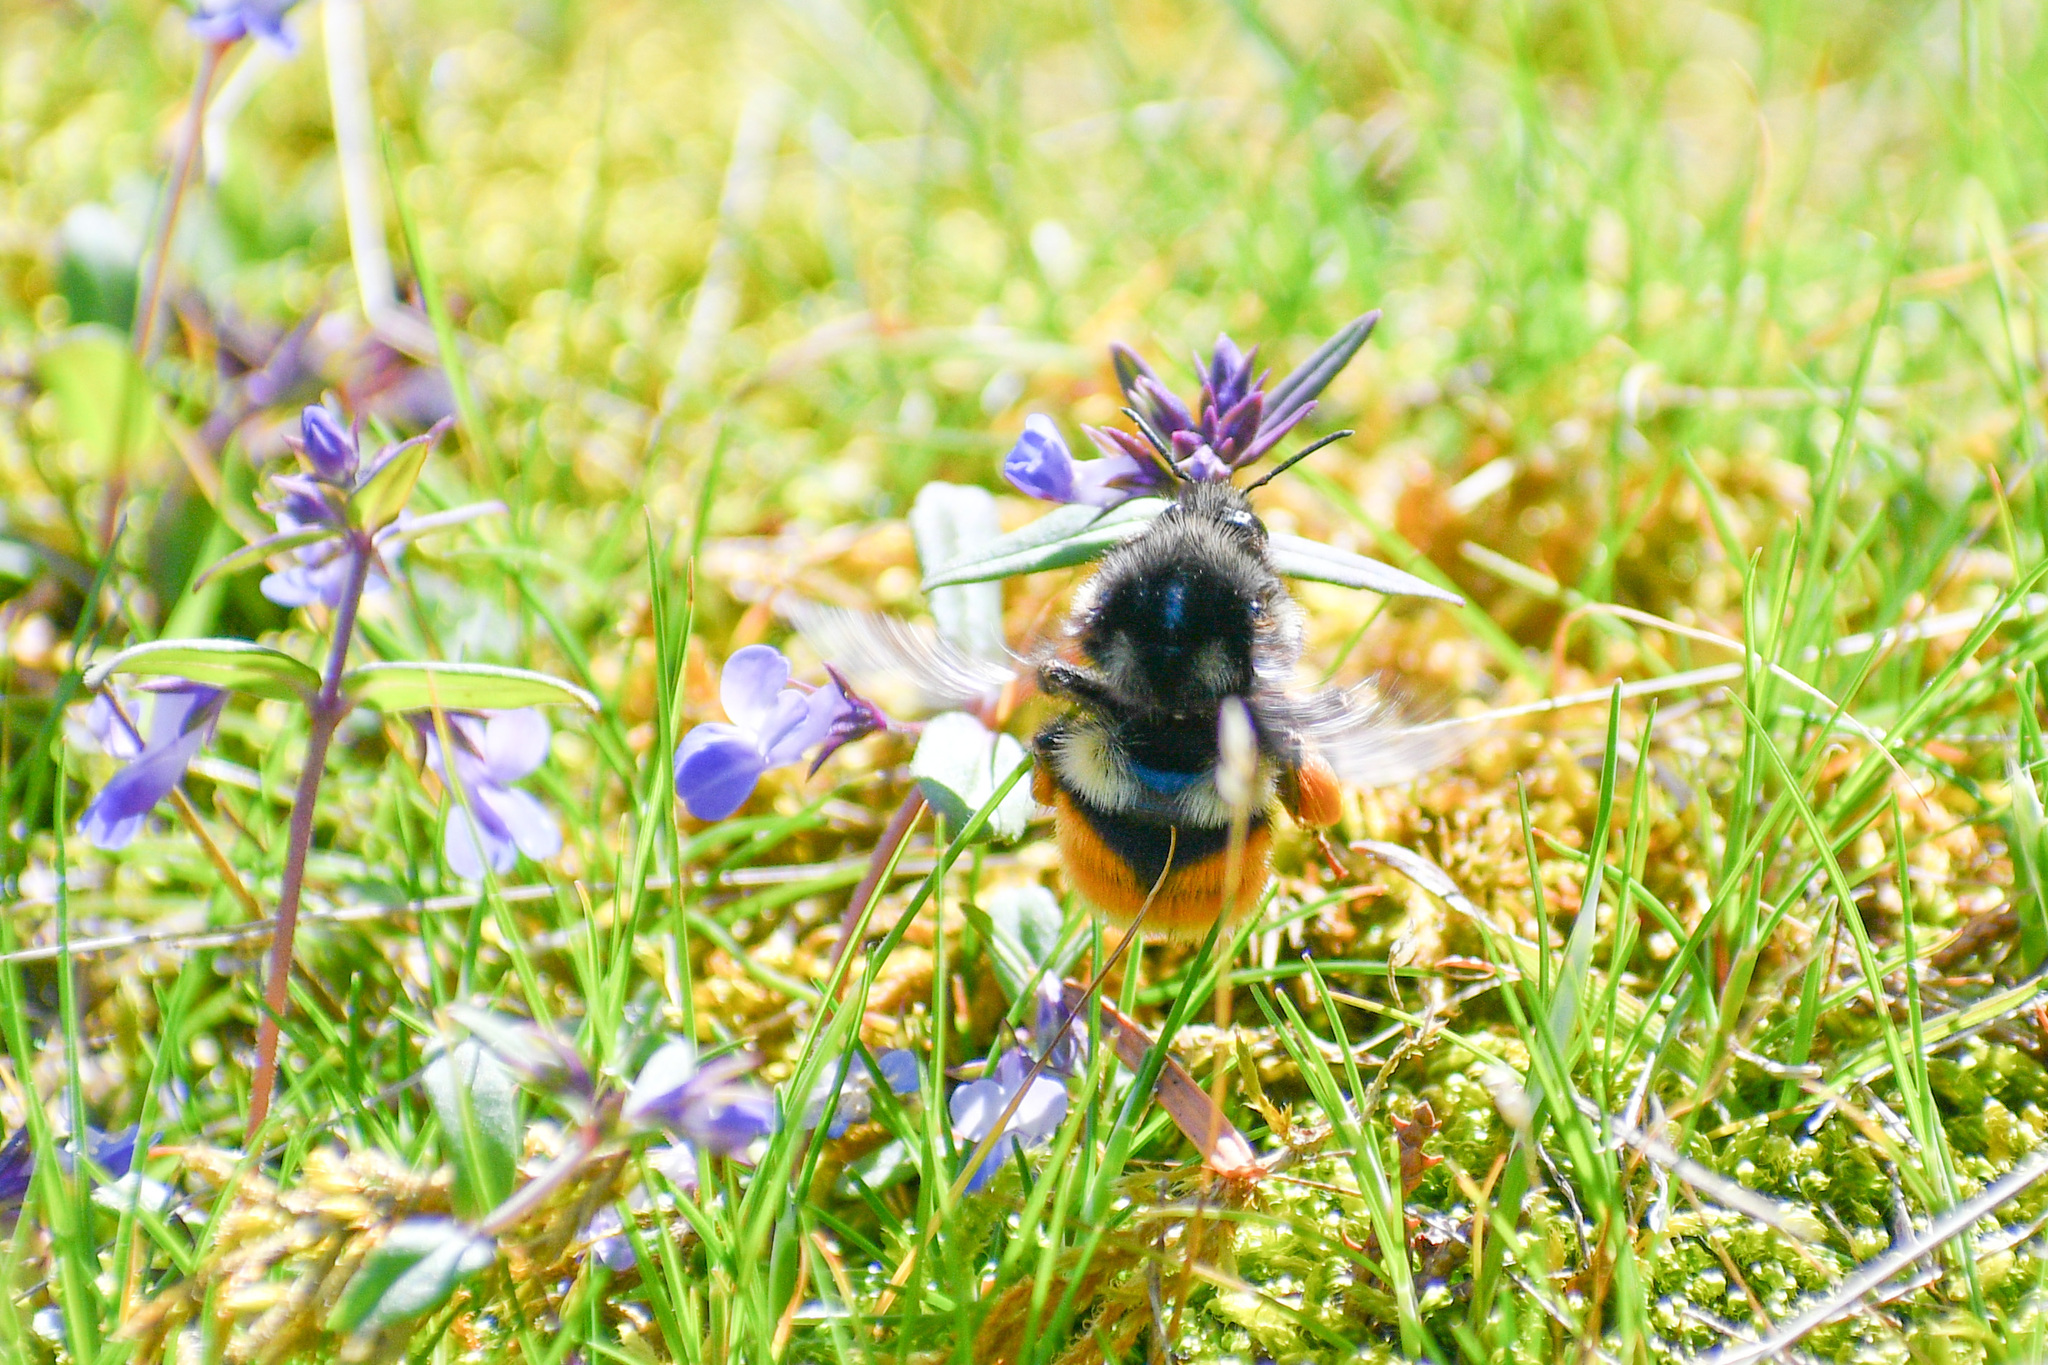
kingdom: Animalia
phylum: Arthropoda
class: Insecta
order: Hymenoptera
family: Apidae
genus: Bombus
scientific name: Bombus vancouverensis
